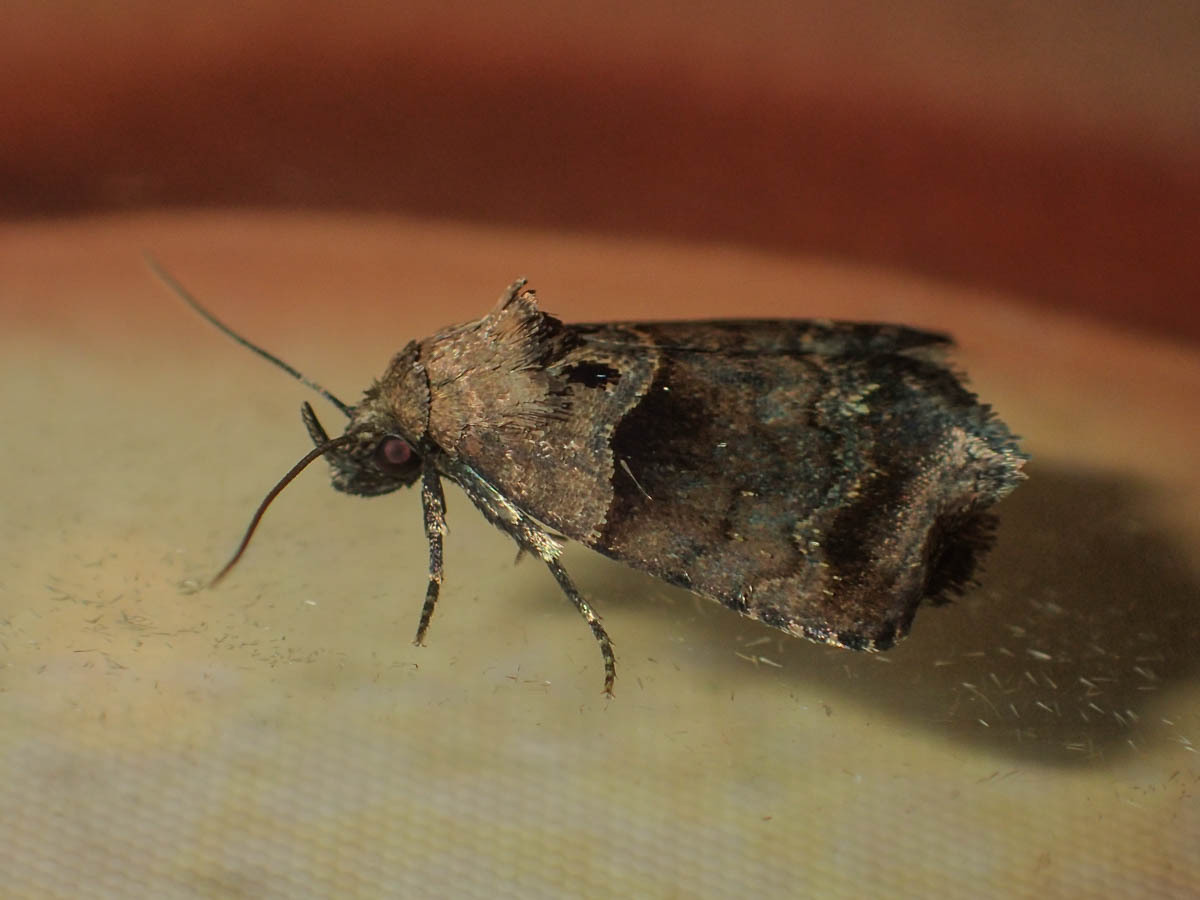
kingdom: Animalia
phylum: Arthropoda
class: Insecta
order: Lepidoptera
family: Noctuidae
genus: Cretonia
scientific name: Cretonia forficula
